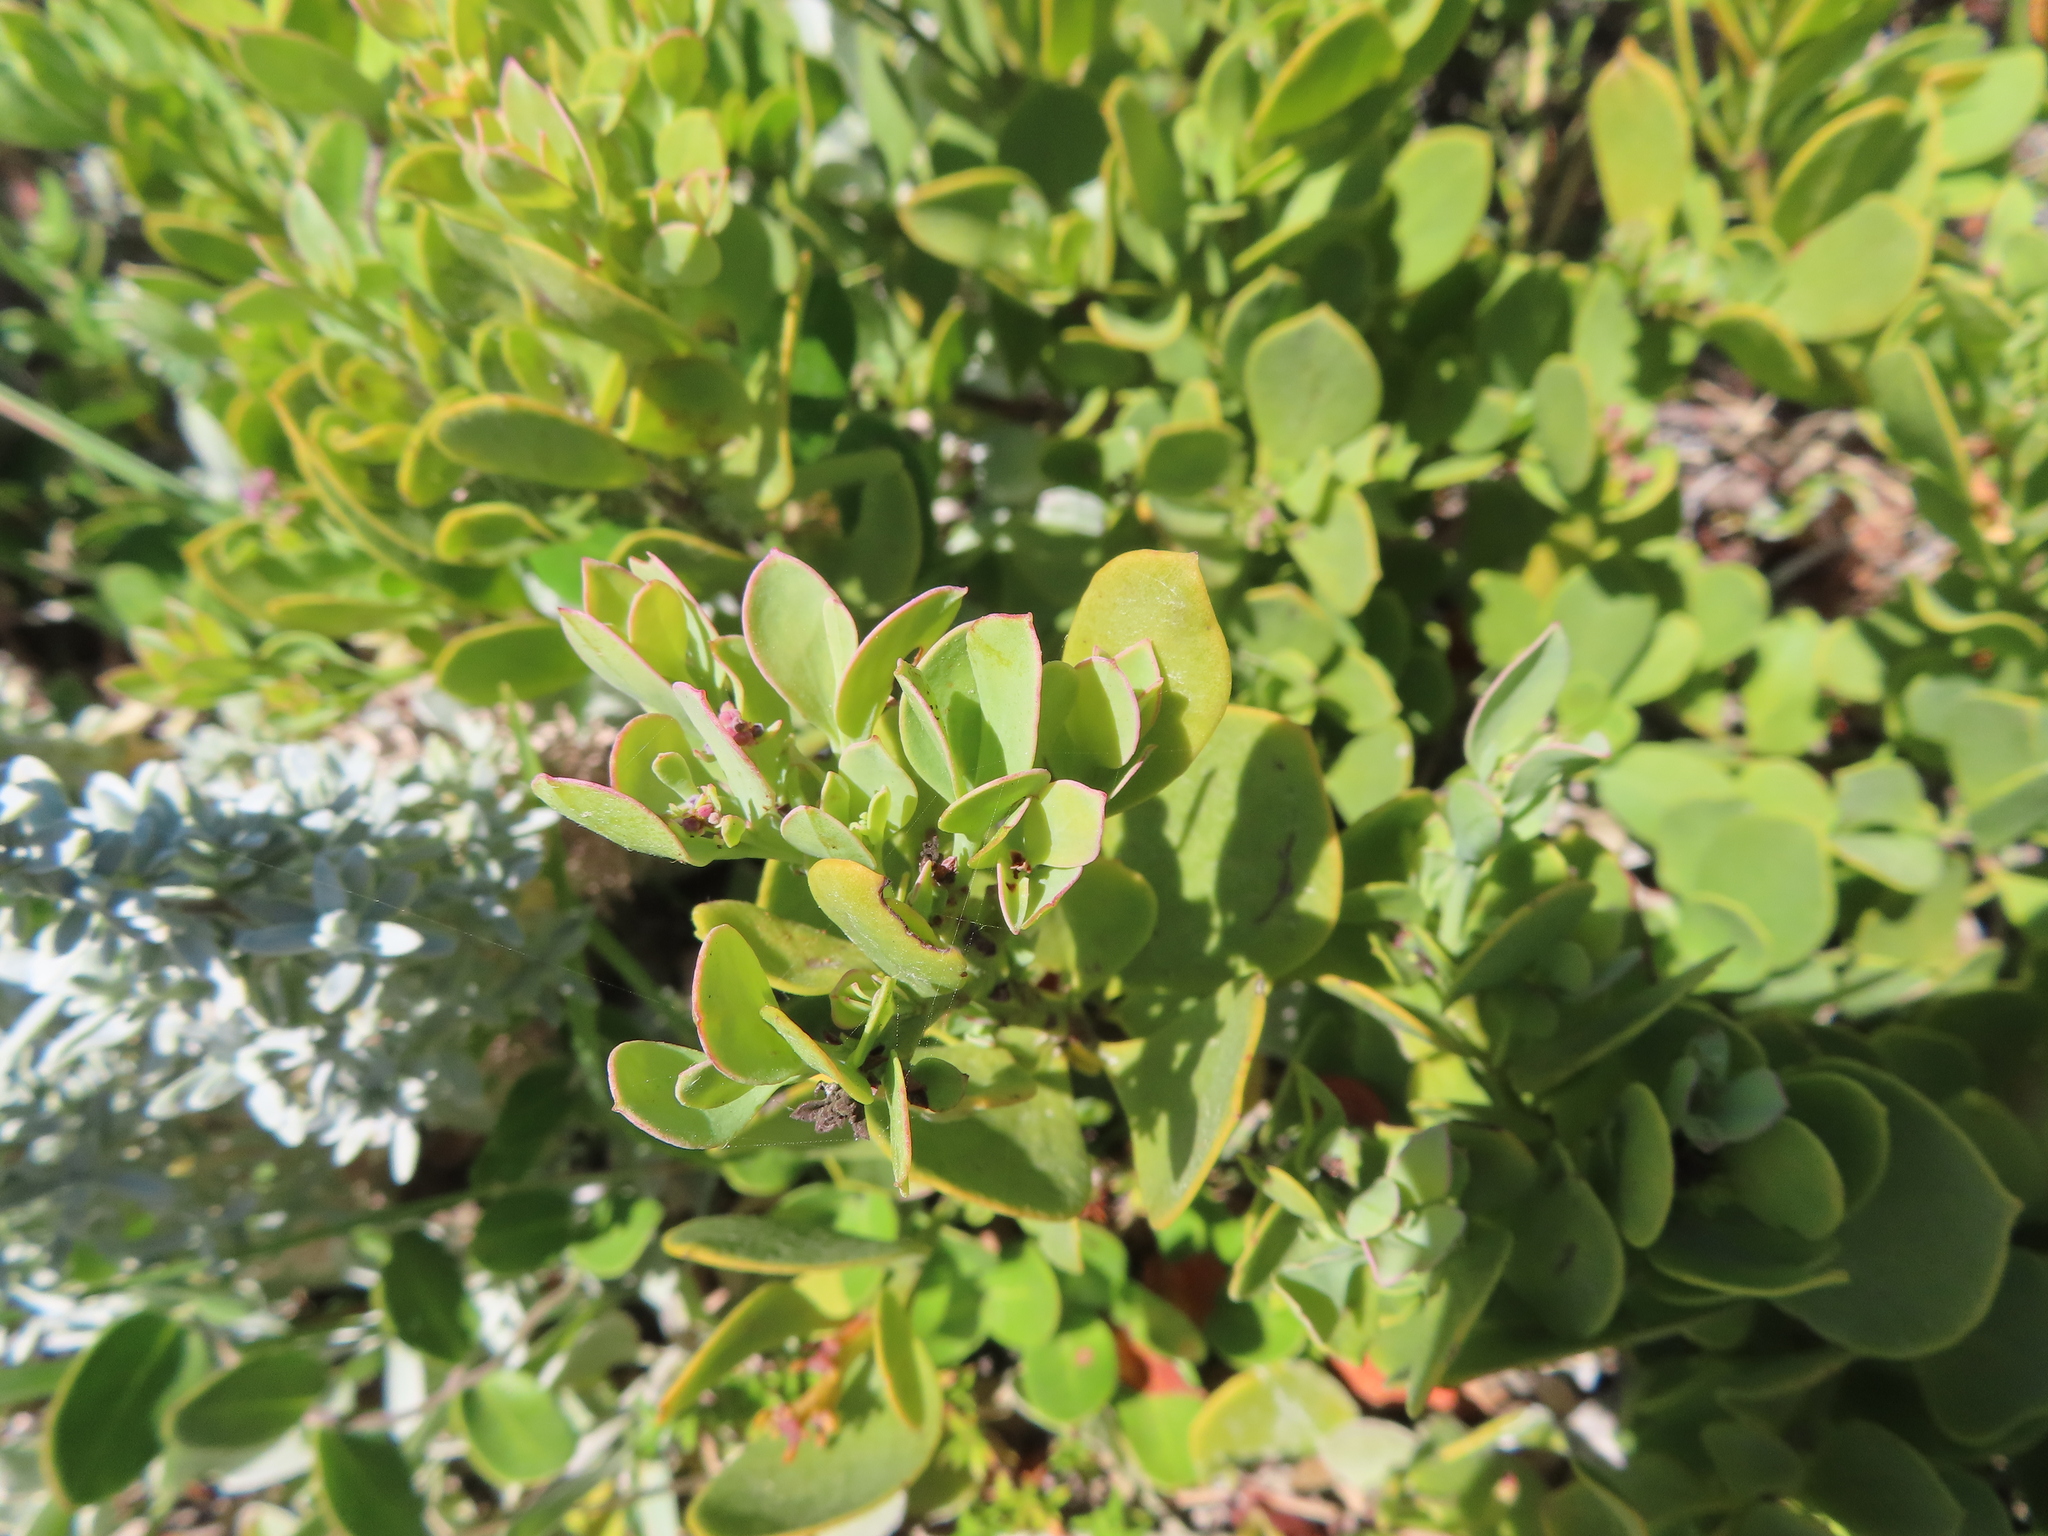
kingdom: Plantae
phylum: Tracheophyta
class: Magnoliopsida
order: Santalales
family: Santalaceae
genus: Osyris
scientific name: Osyris compressa
